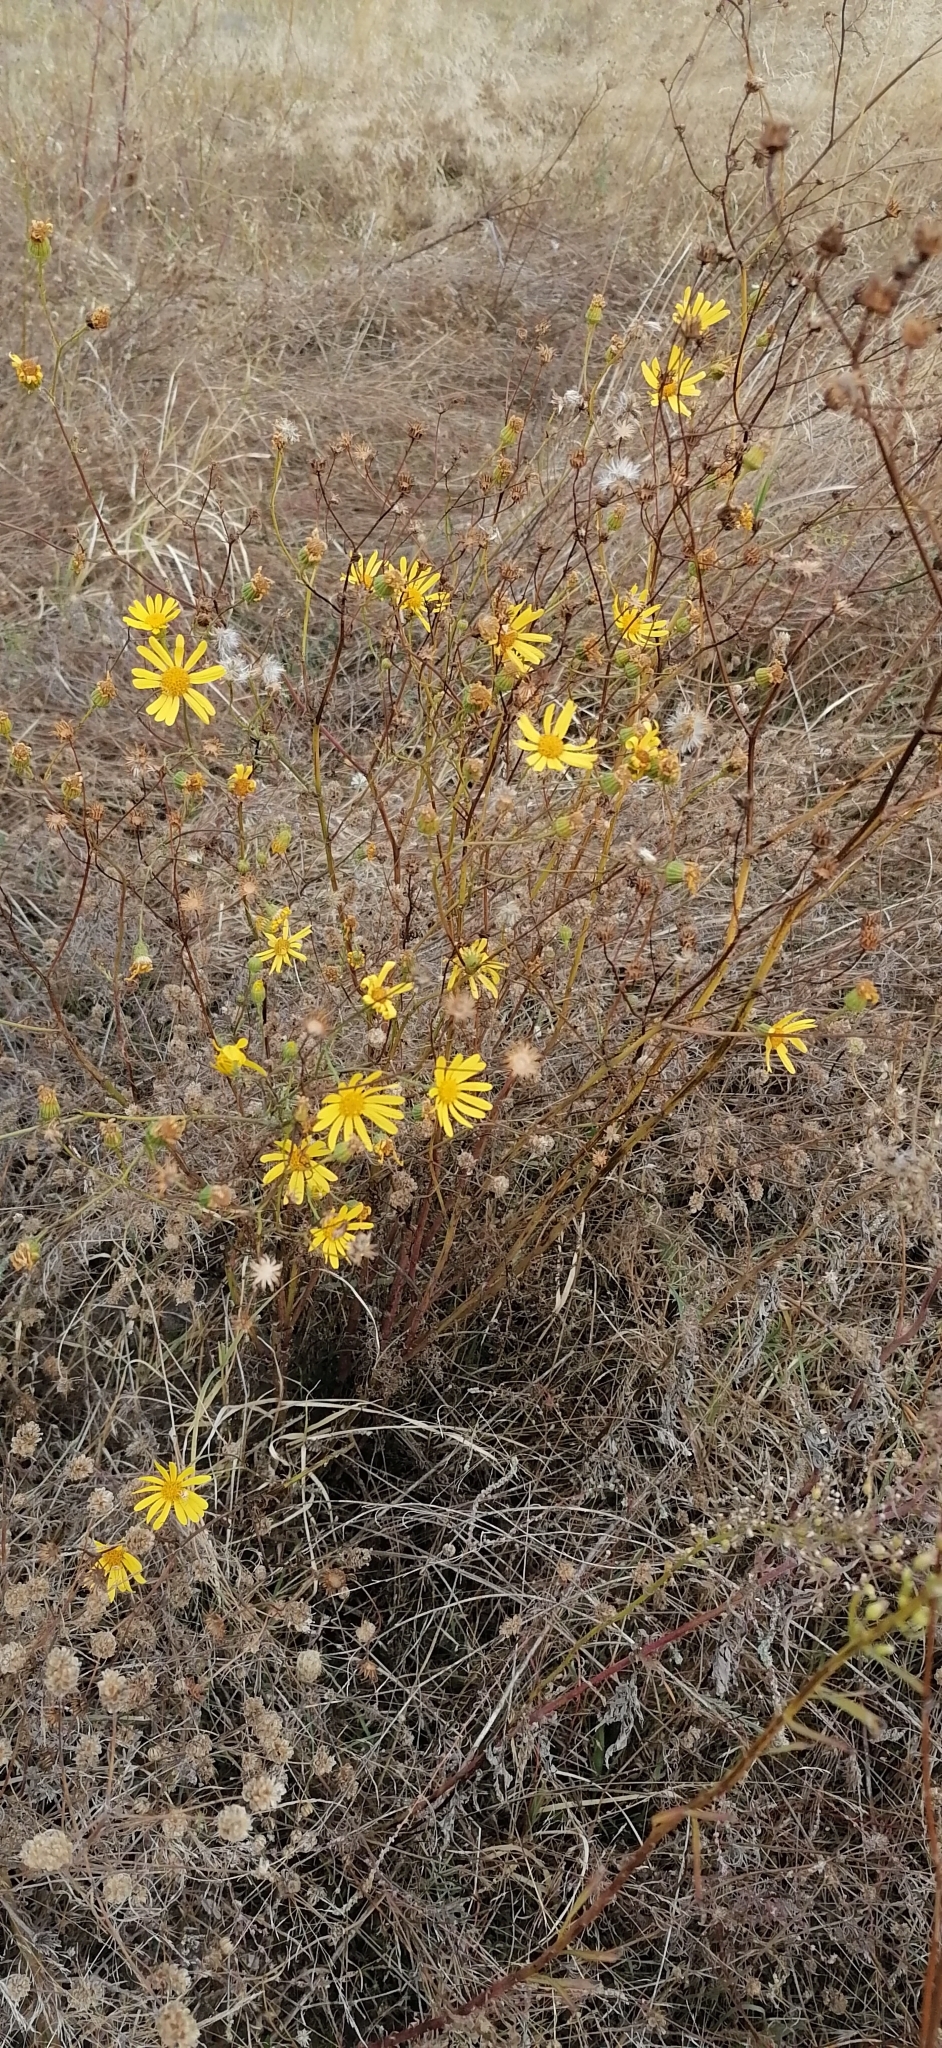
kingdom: Plantae
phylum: Tracheophyta
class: Magnoliopsida
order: Asterales
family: Asteraceae
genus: Jacobaea
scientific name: Jacobaea borysthenica
